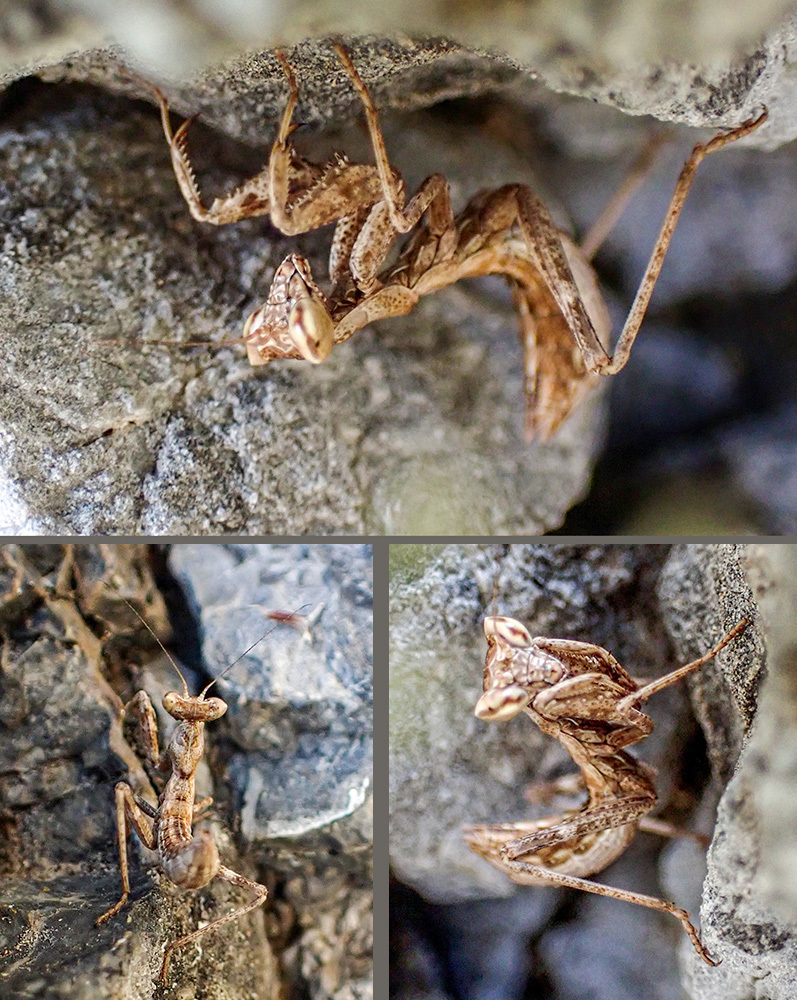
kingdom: Animalia
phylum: Arthropoda
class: Insecta
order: Mantodea
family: Amelidae
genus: Ameles
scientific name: Ameles spallanzania
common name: European dwarf mantis
